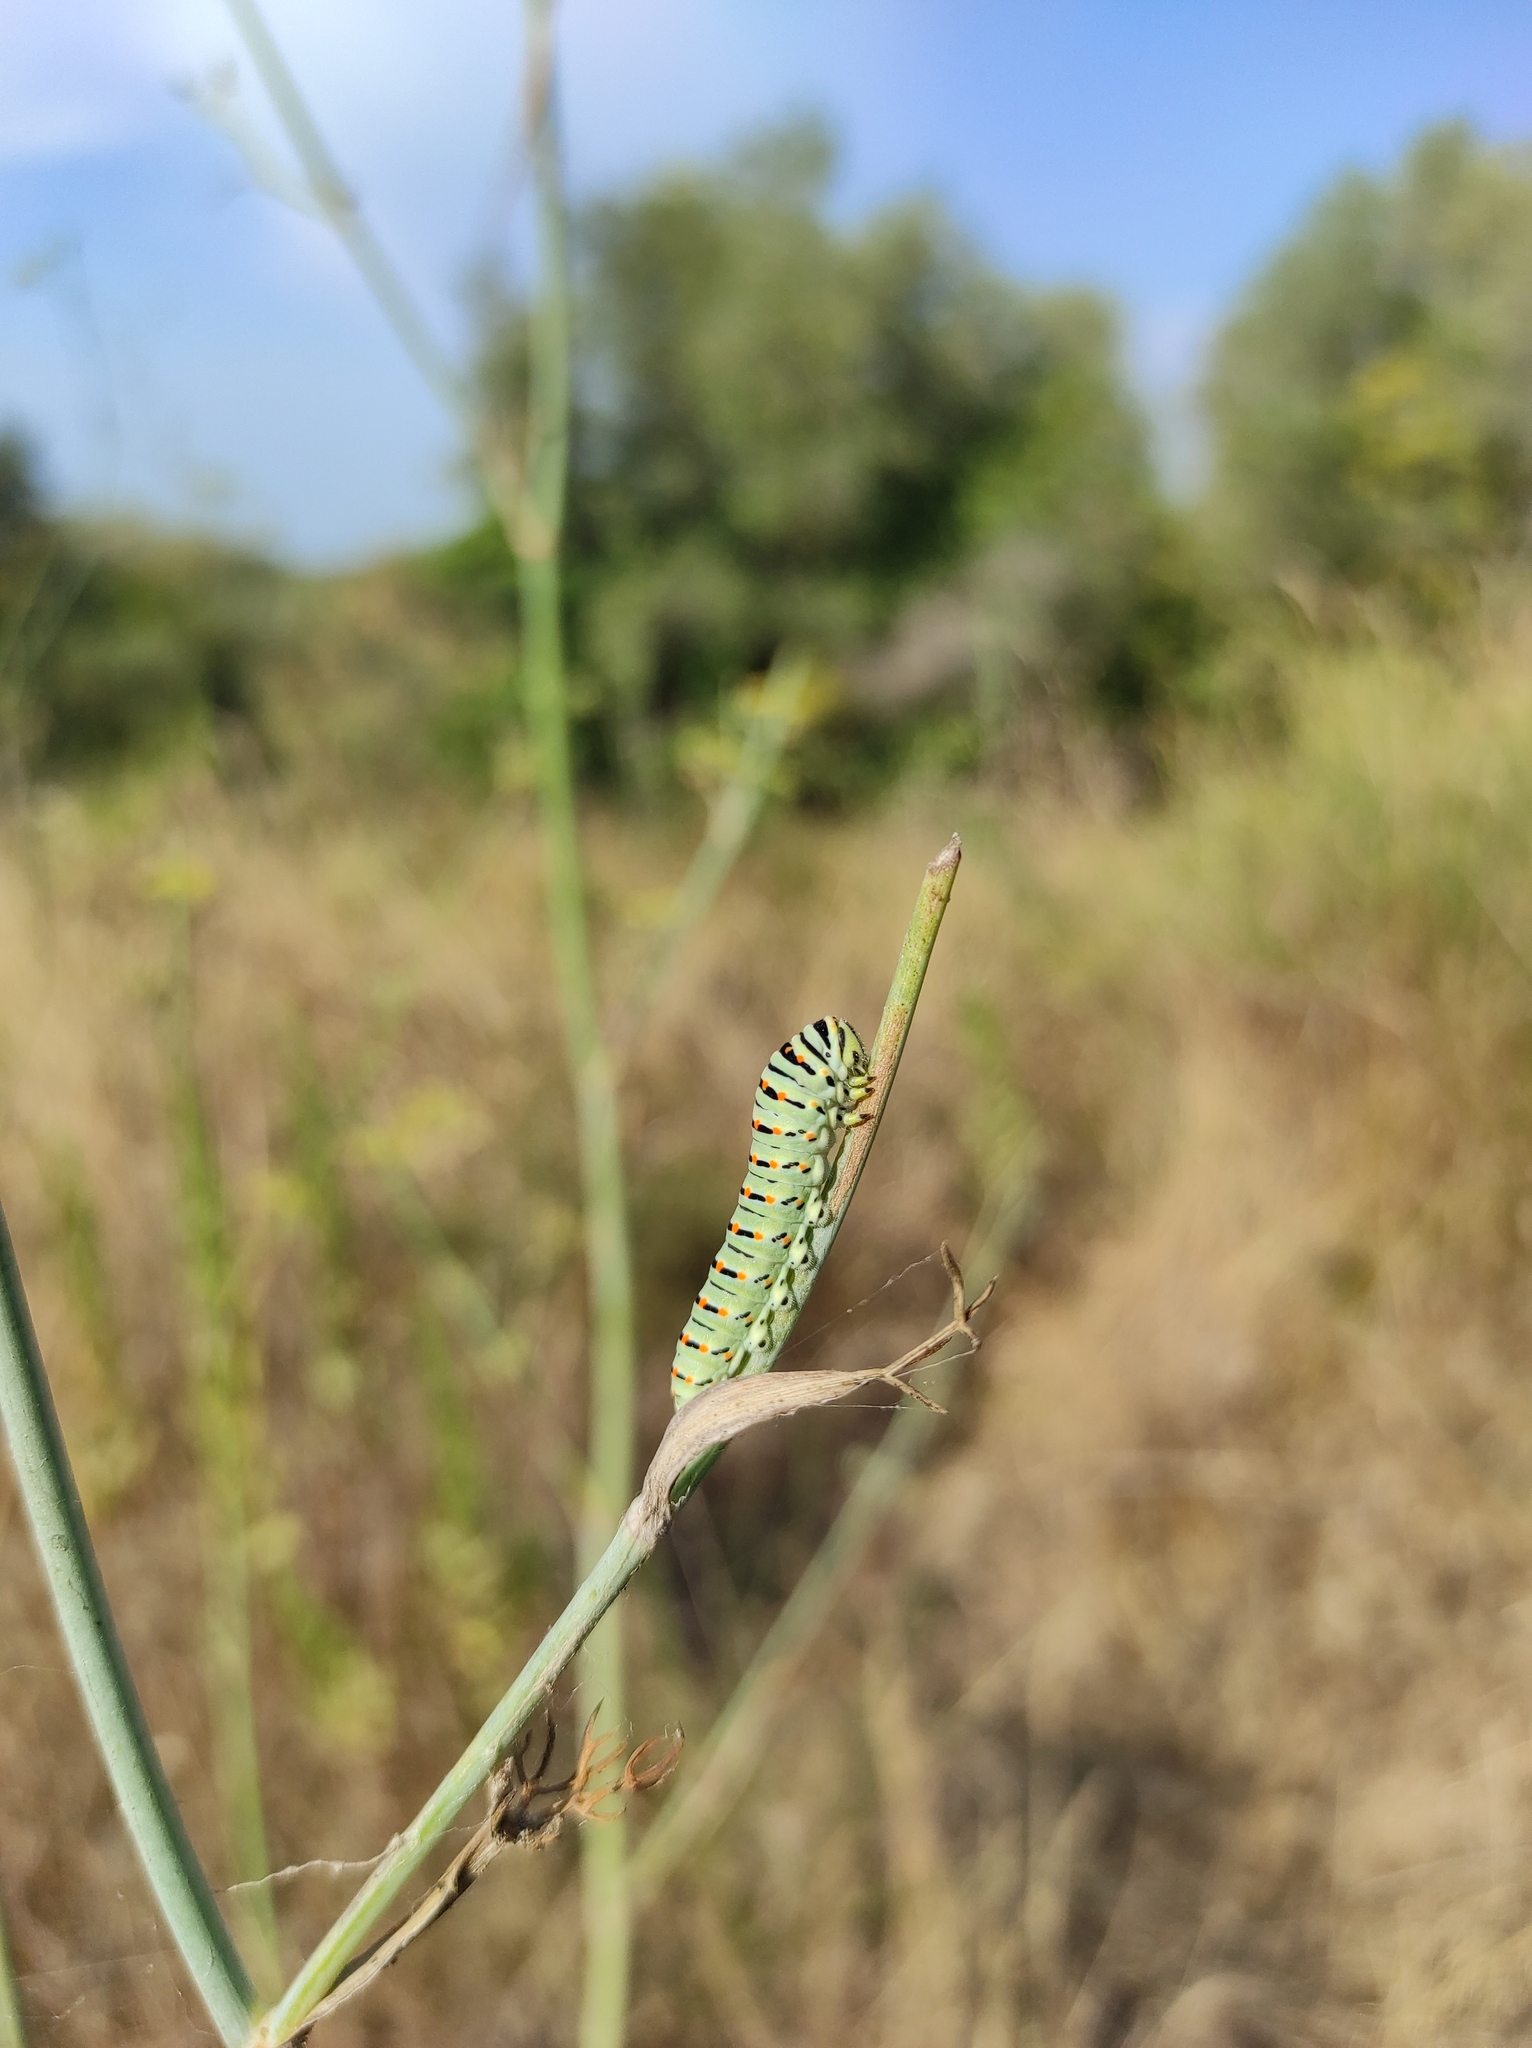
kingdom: Animalia
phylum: Arthropoda
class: Insecta
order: Lepidoptera
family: Papilionidae
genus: Papilio
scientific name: Papilio machaon
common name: Swallowtail
